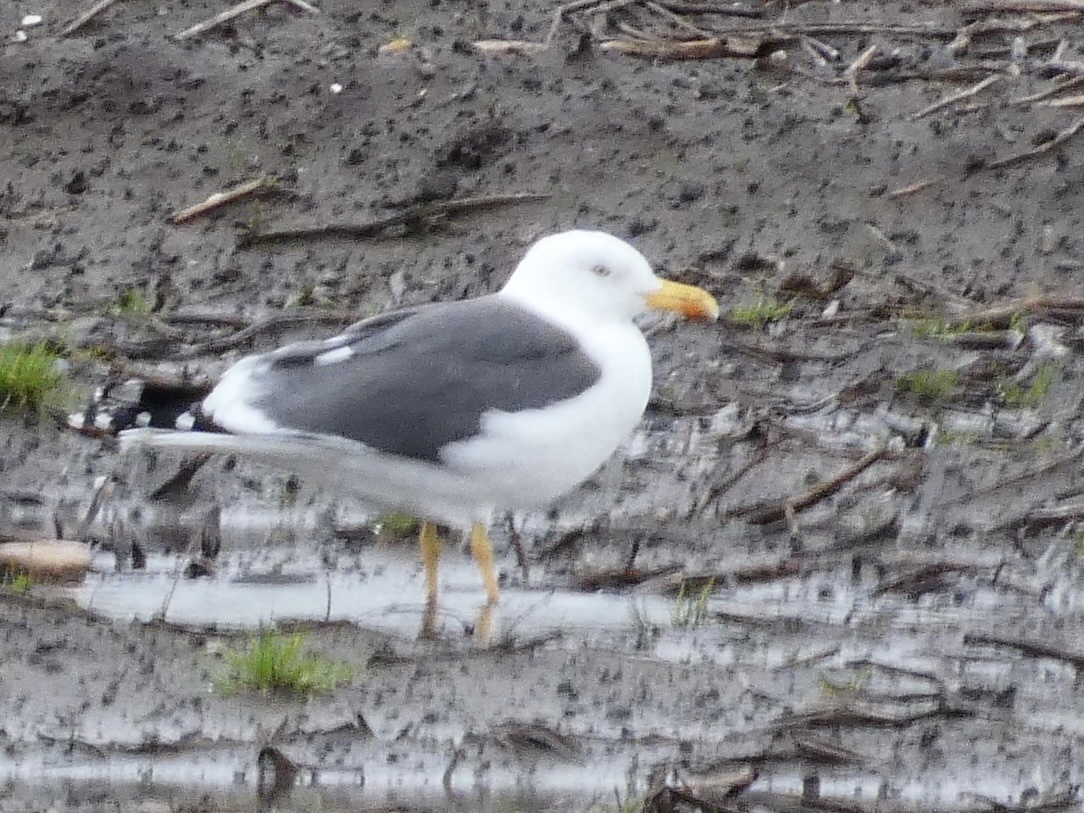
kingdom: Animalia
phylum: Chordata
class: Aves
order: Charadriiformes
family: Laridae
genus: Larus
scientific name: Larus fuscus
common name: Lesser black-backed gull
